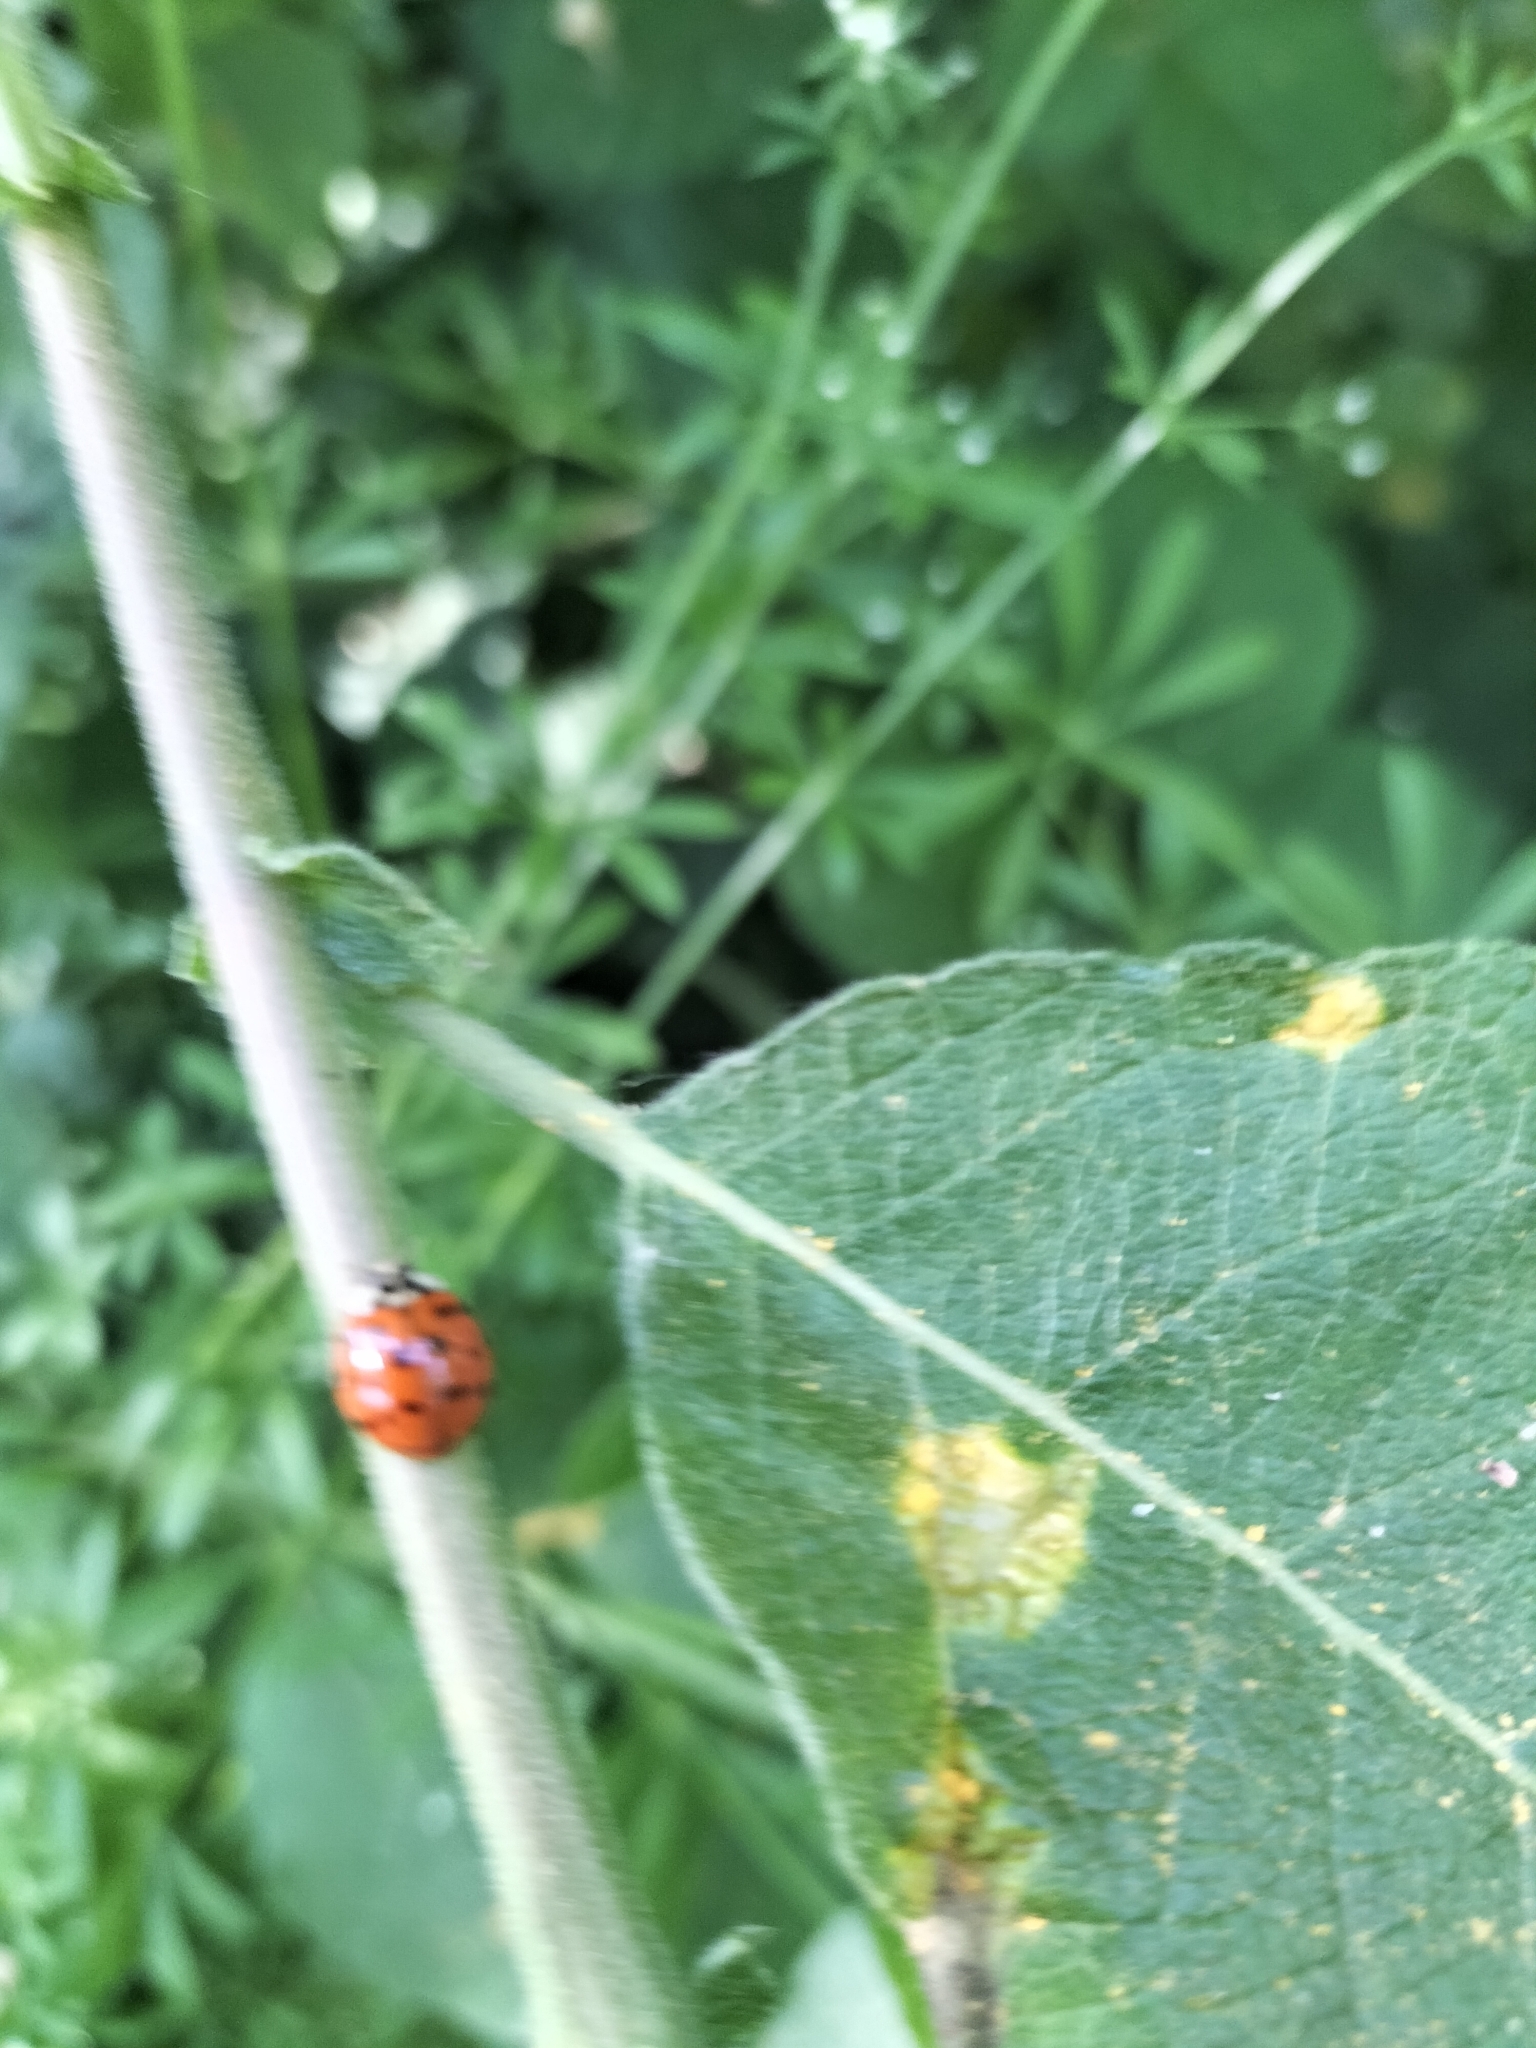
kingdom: Animalia
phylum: Arthropoda
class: Insecta
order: Coleoptera
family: Coccinellidae
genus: Harmonia
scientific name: Harmonia axyridis
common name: Harlequin ladybird
